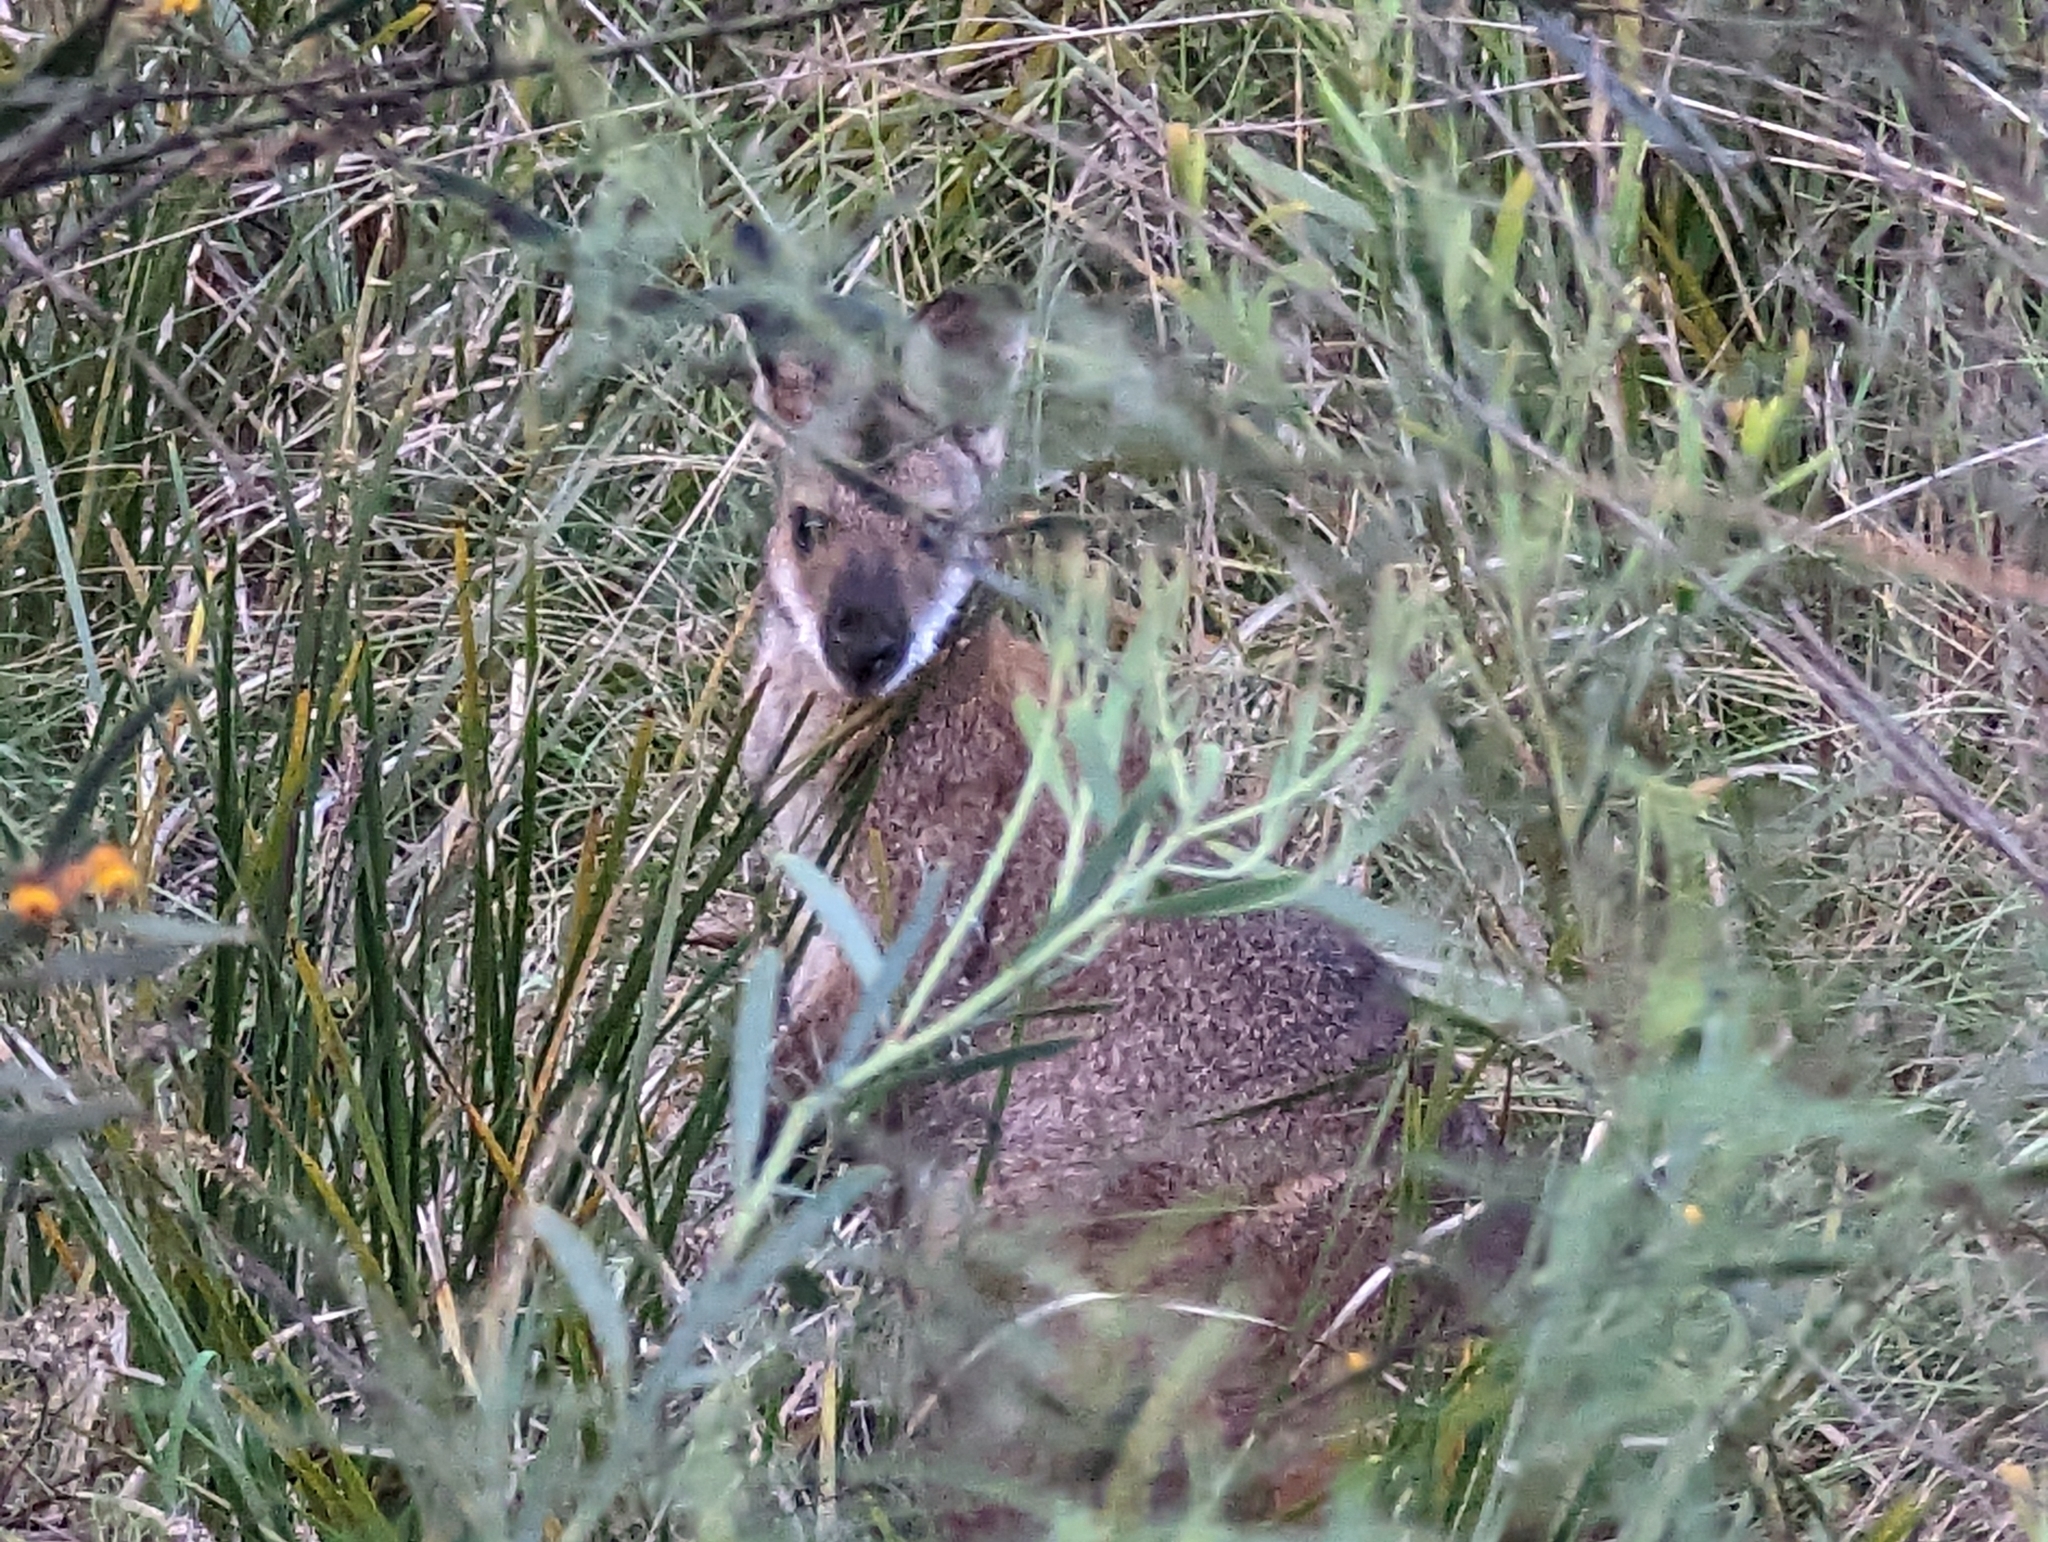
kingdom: Animalia
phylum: Chordata
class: Mammalia
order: Diprotodontia
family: Macropodidae
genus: Notamacropus
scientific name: Notamacropus rufogriseus
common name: Red-necked wallaby
